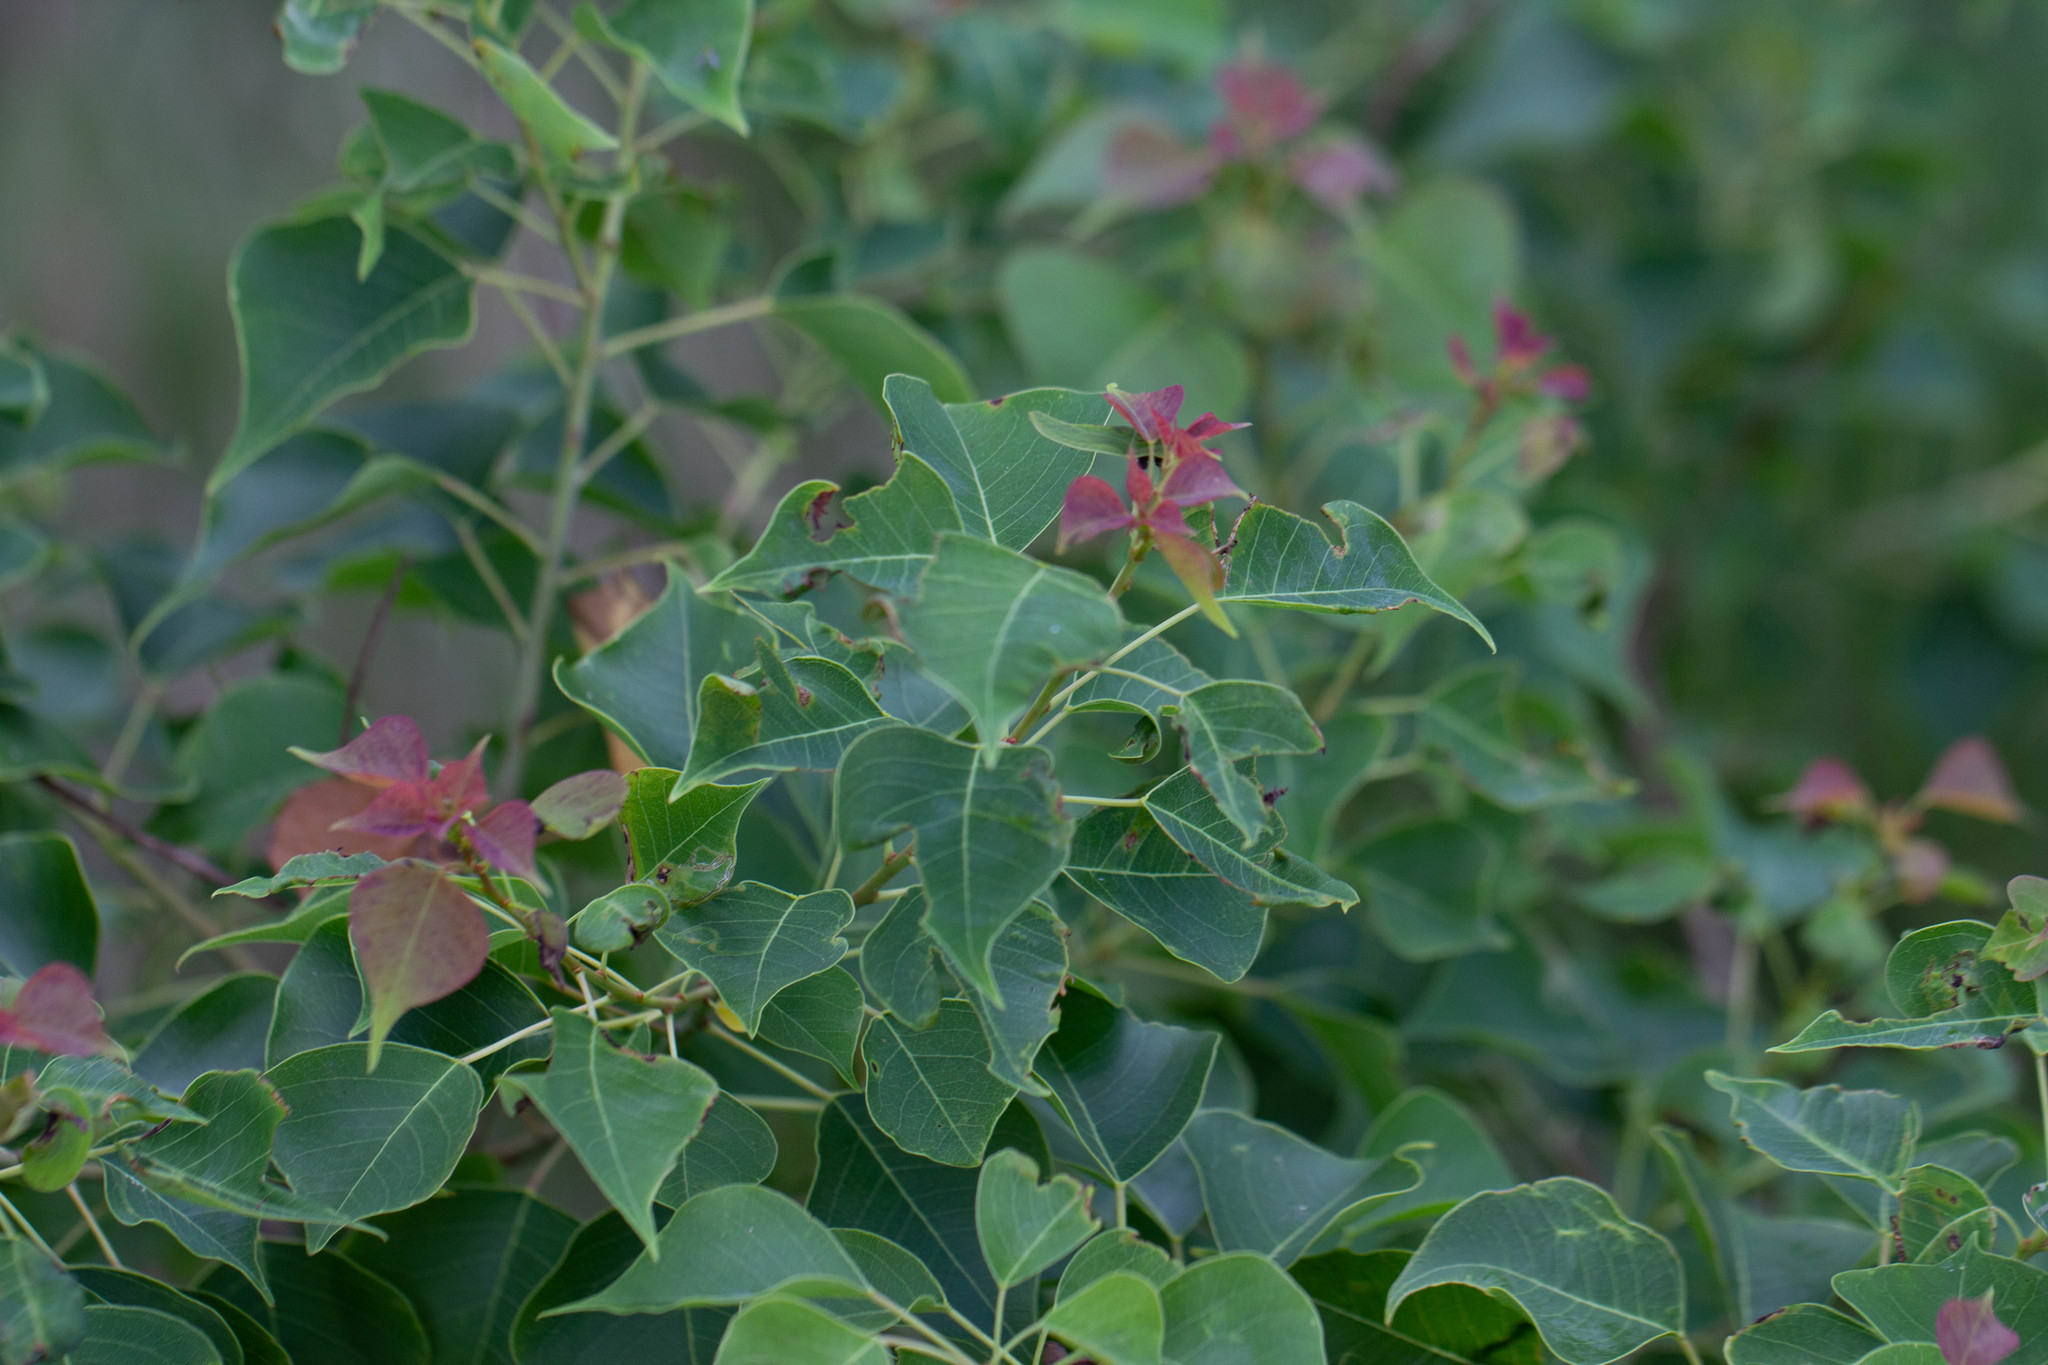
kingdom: Plantae
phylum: Tracheophyta
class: Magnoliopsida
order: Malpighiales
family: Euphorbiaceae
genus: Triadica
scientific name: Triadica sebifera
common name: Chinese tallow
